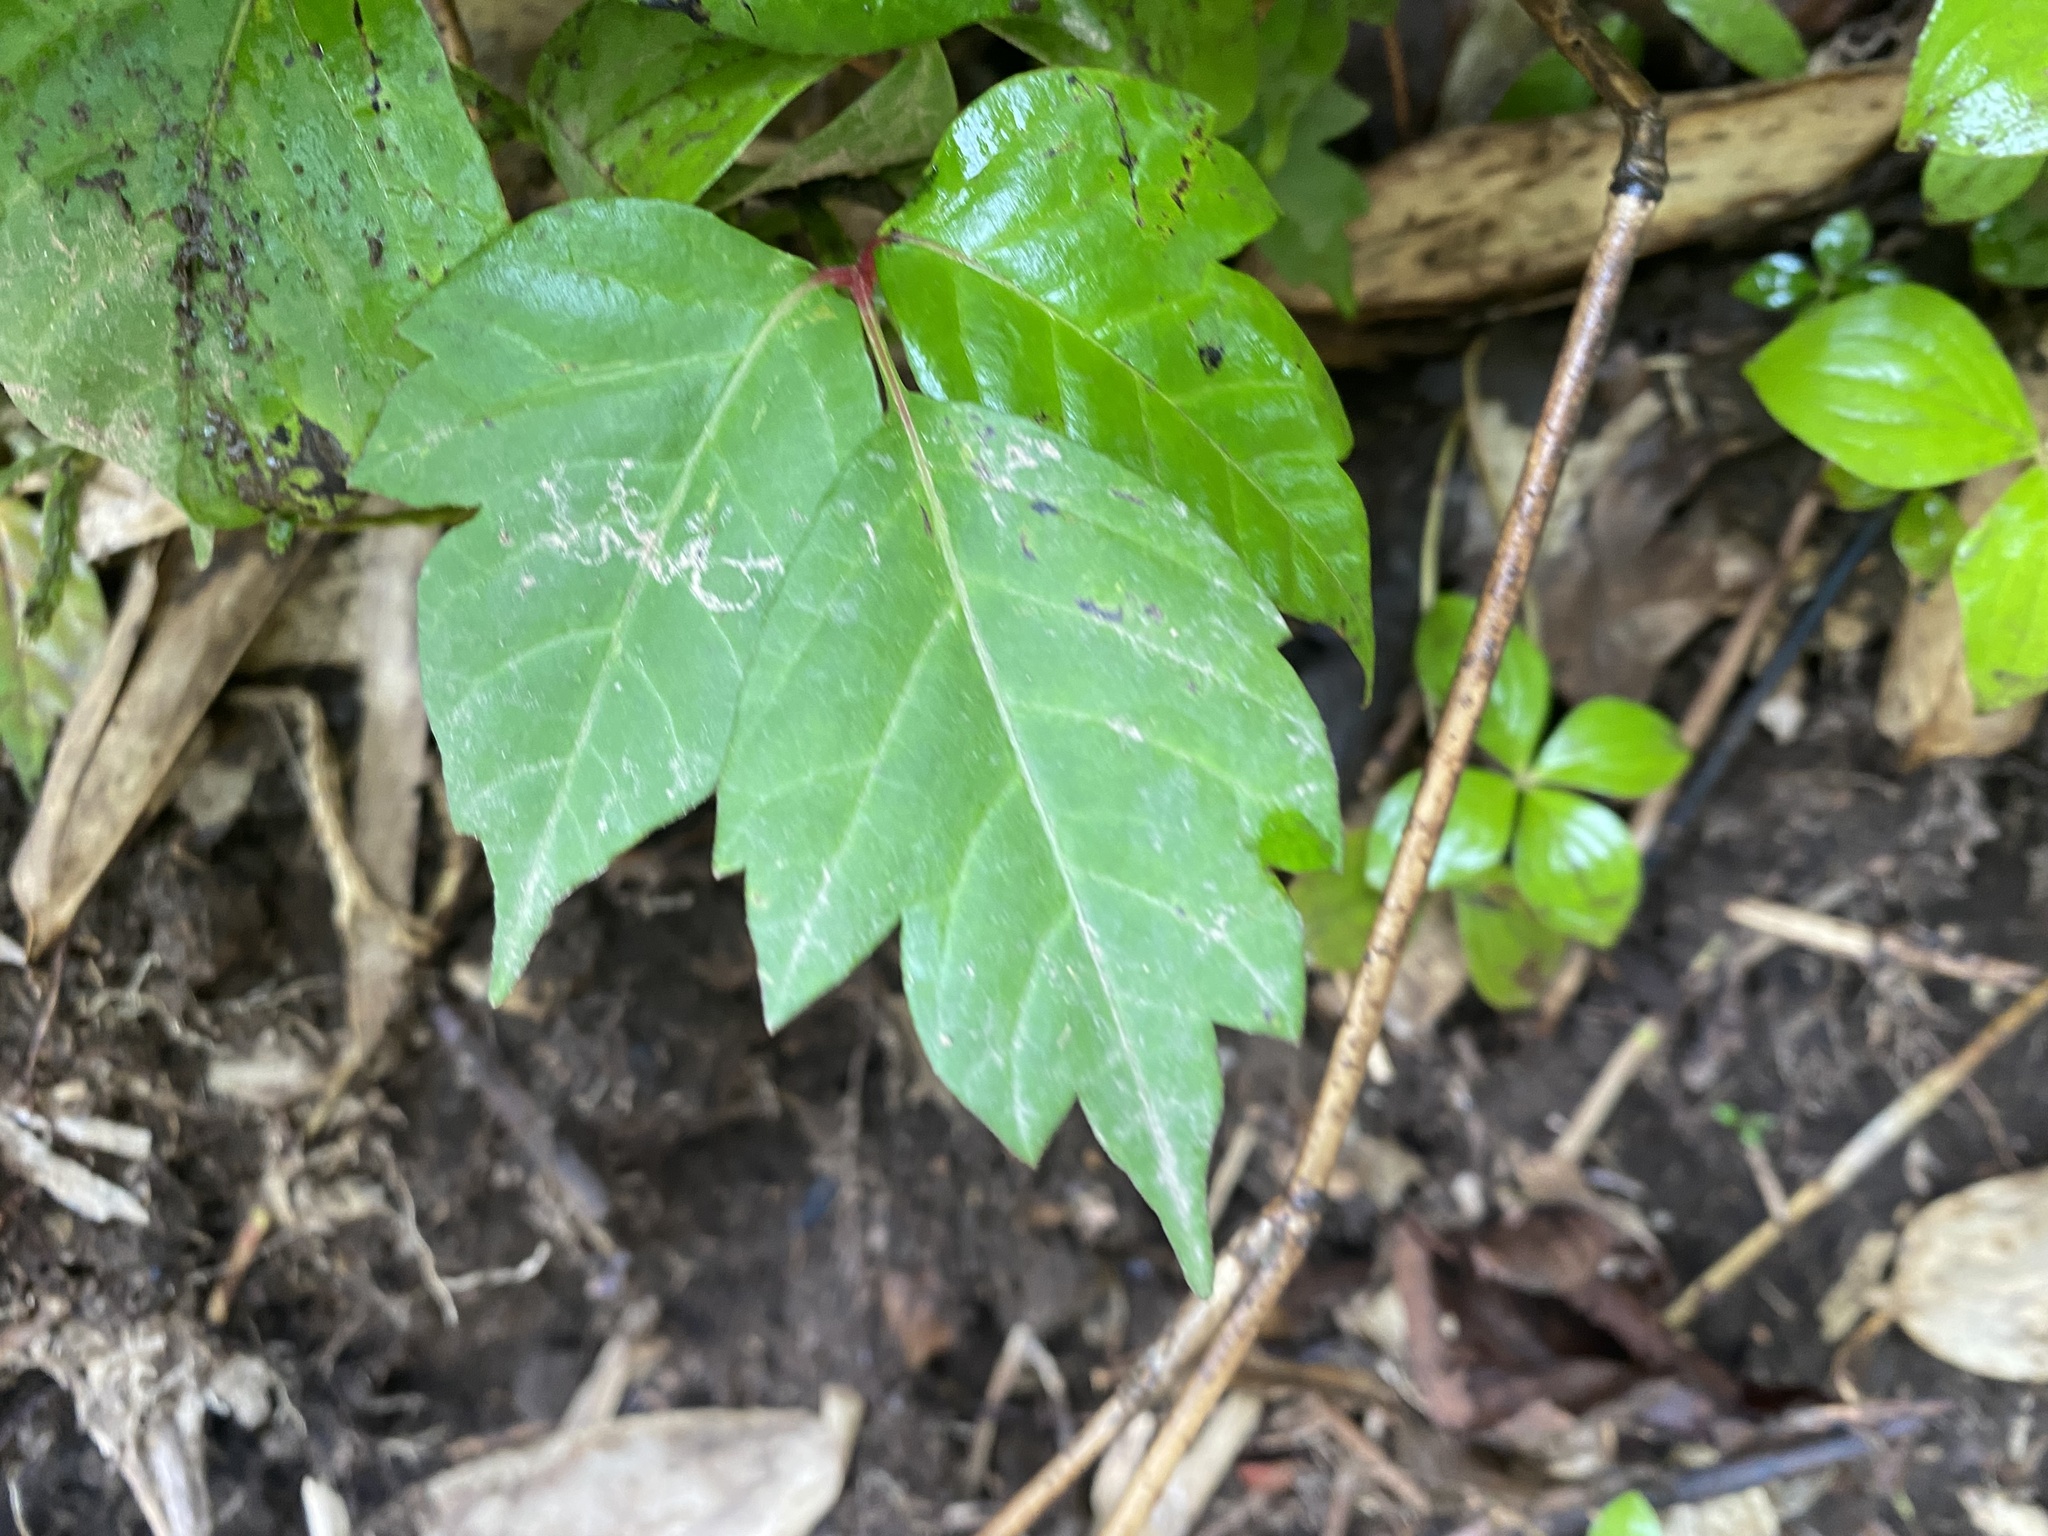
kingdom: Plantae
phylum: Tracheophyta
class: Magnoliopsida
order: Sapindales
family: Anacardiaceae
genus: Toxicodendron
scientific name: Toxicodendron orientale
